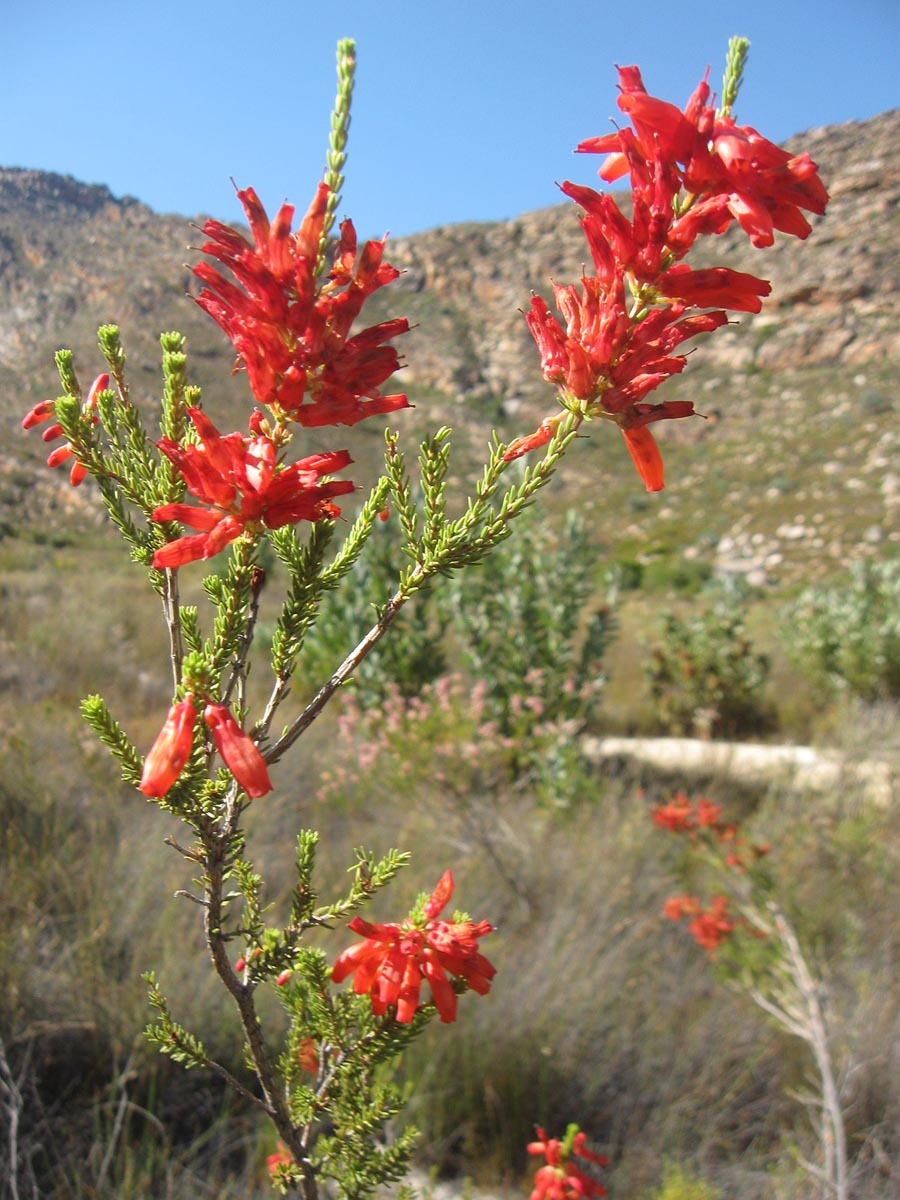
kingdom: Plantae
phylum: Tracheophyta
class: Magnoliopsida
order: Ericales
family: Ericaceae
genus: Erica
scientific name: Erica mammosa
